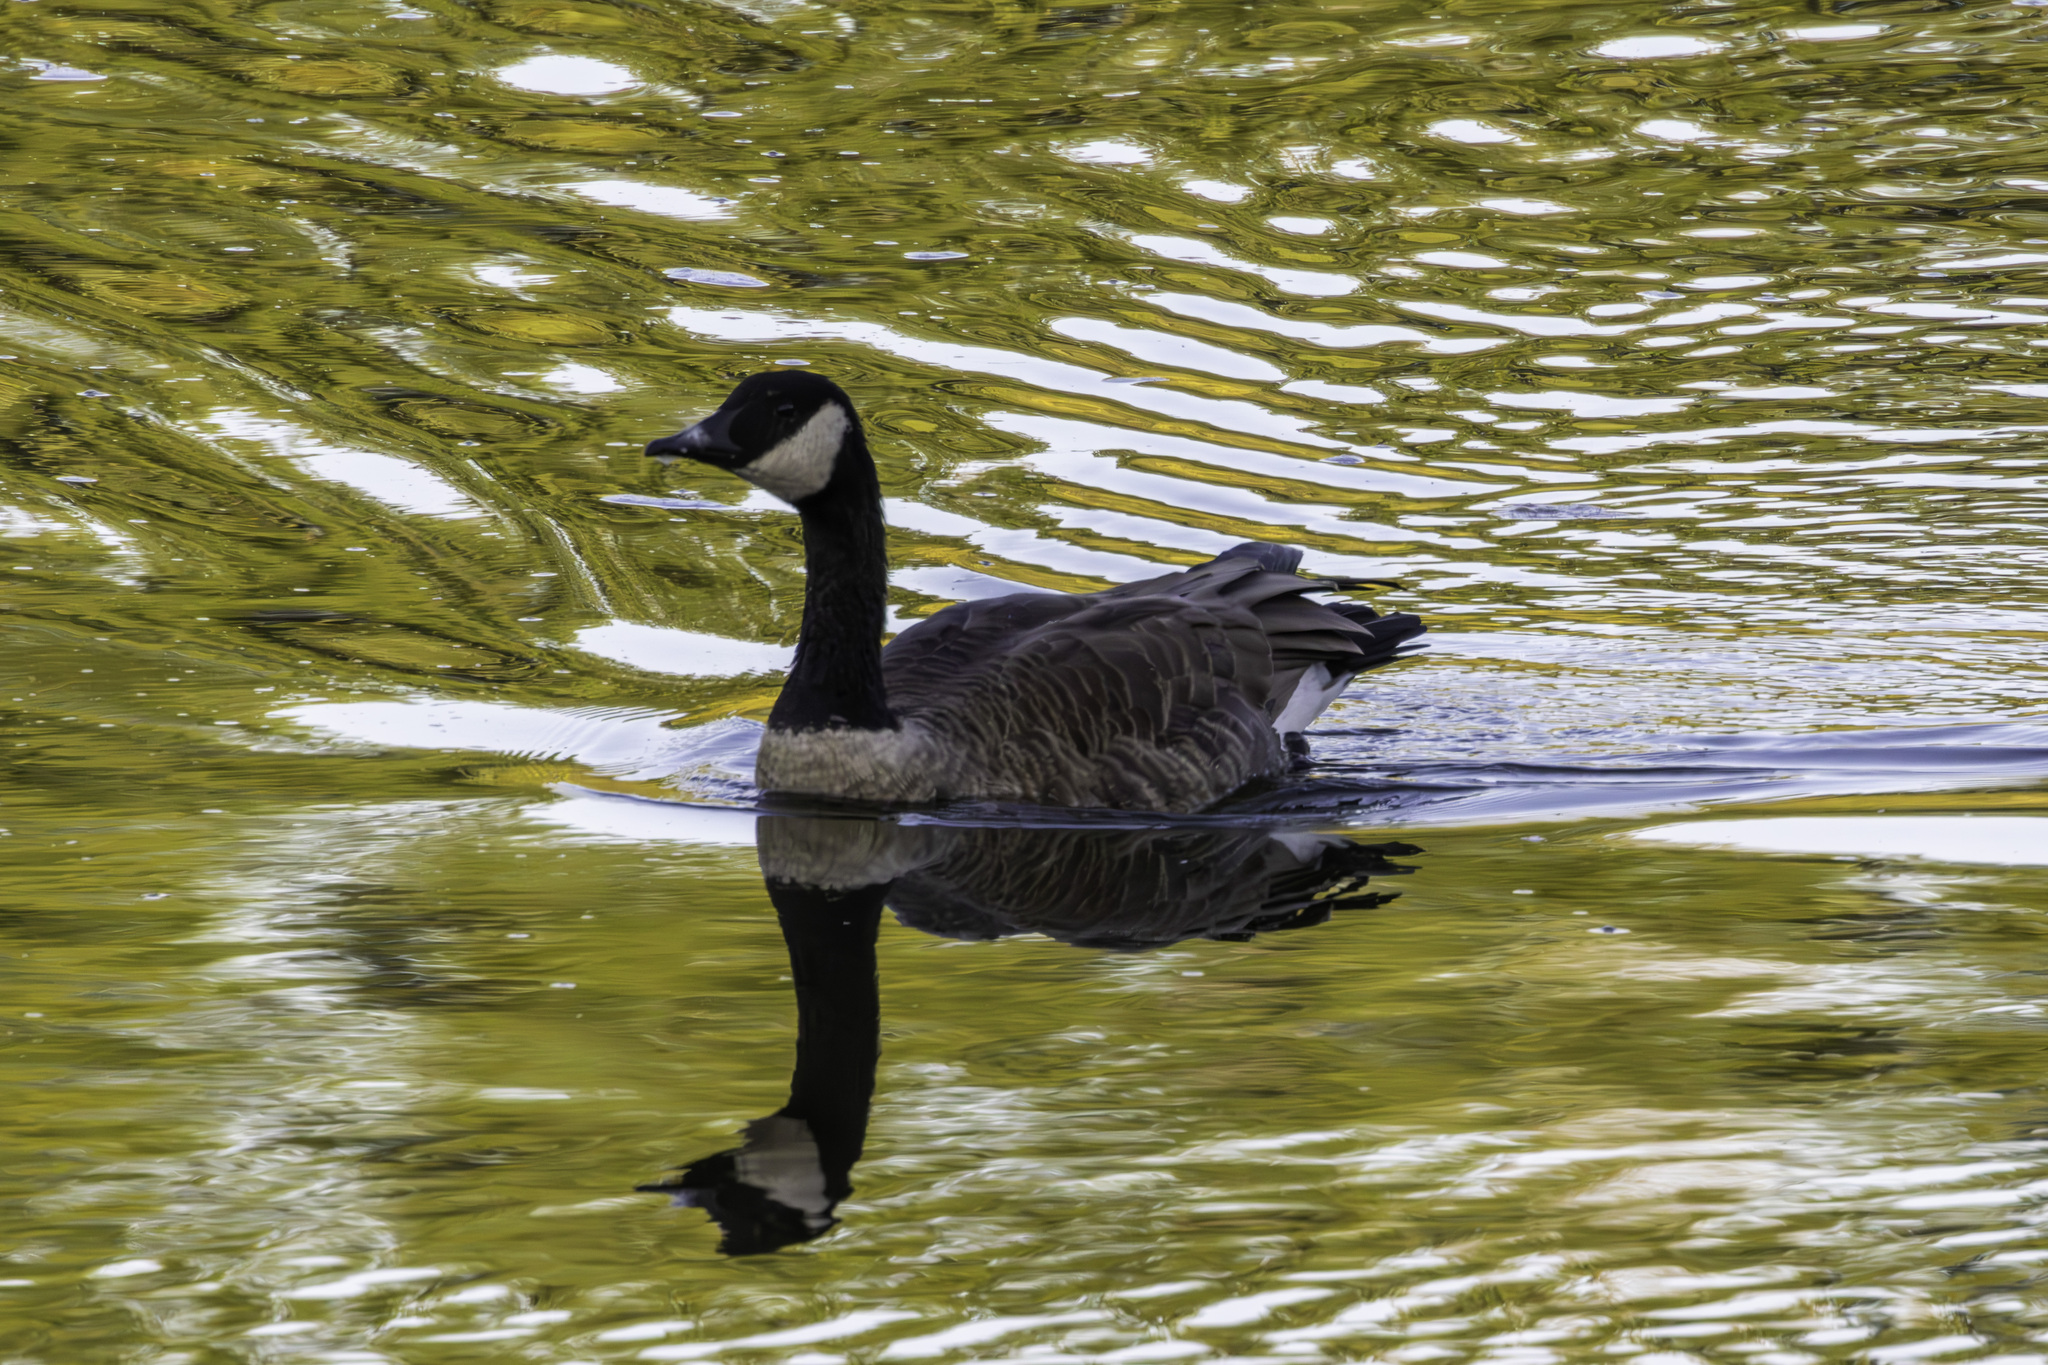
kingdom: Animalia
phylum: Chordata
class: Aves
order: Anseriformes
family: Anatidae
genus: Branta
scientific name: Branta canadensis
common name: Canada goose
